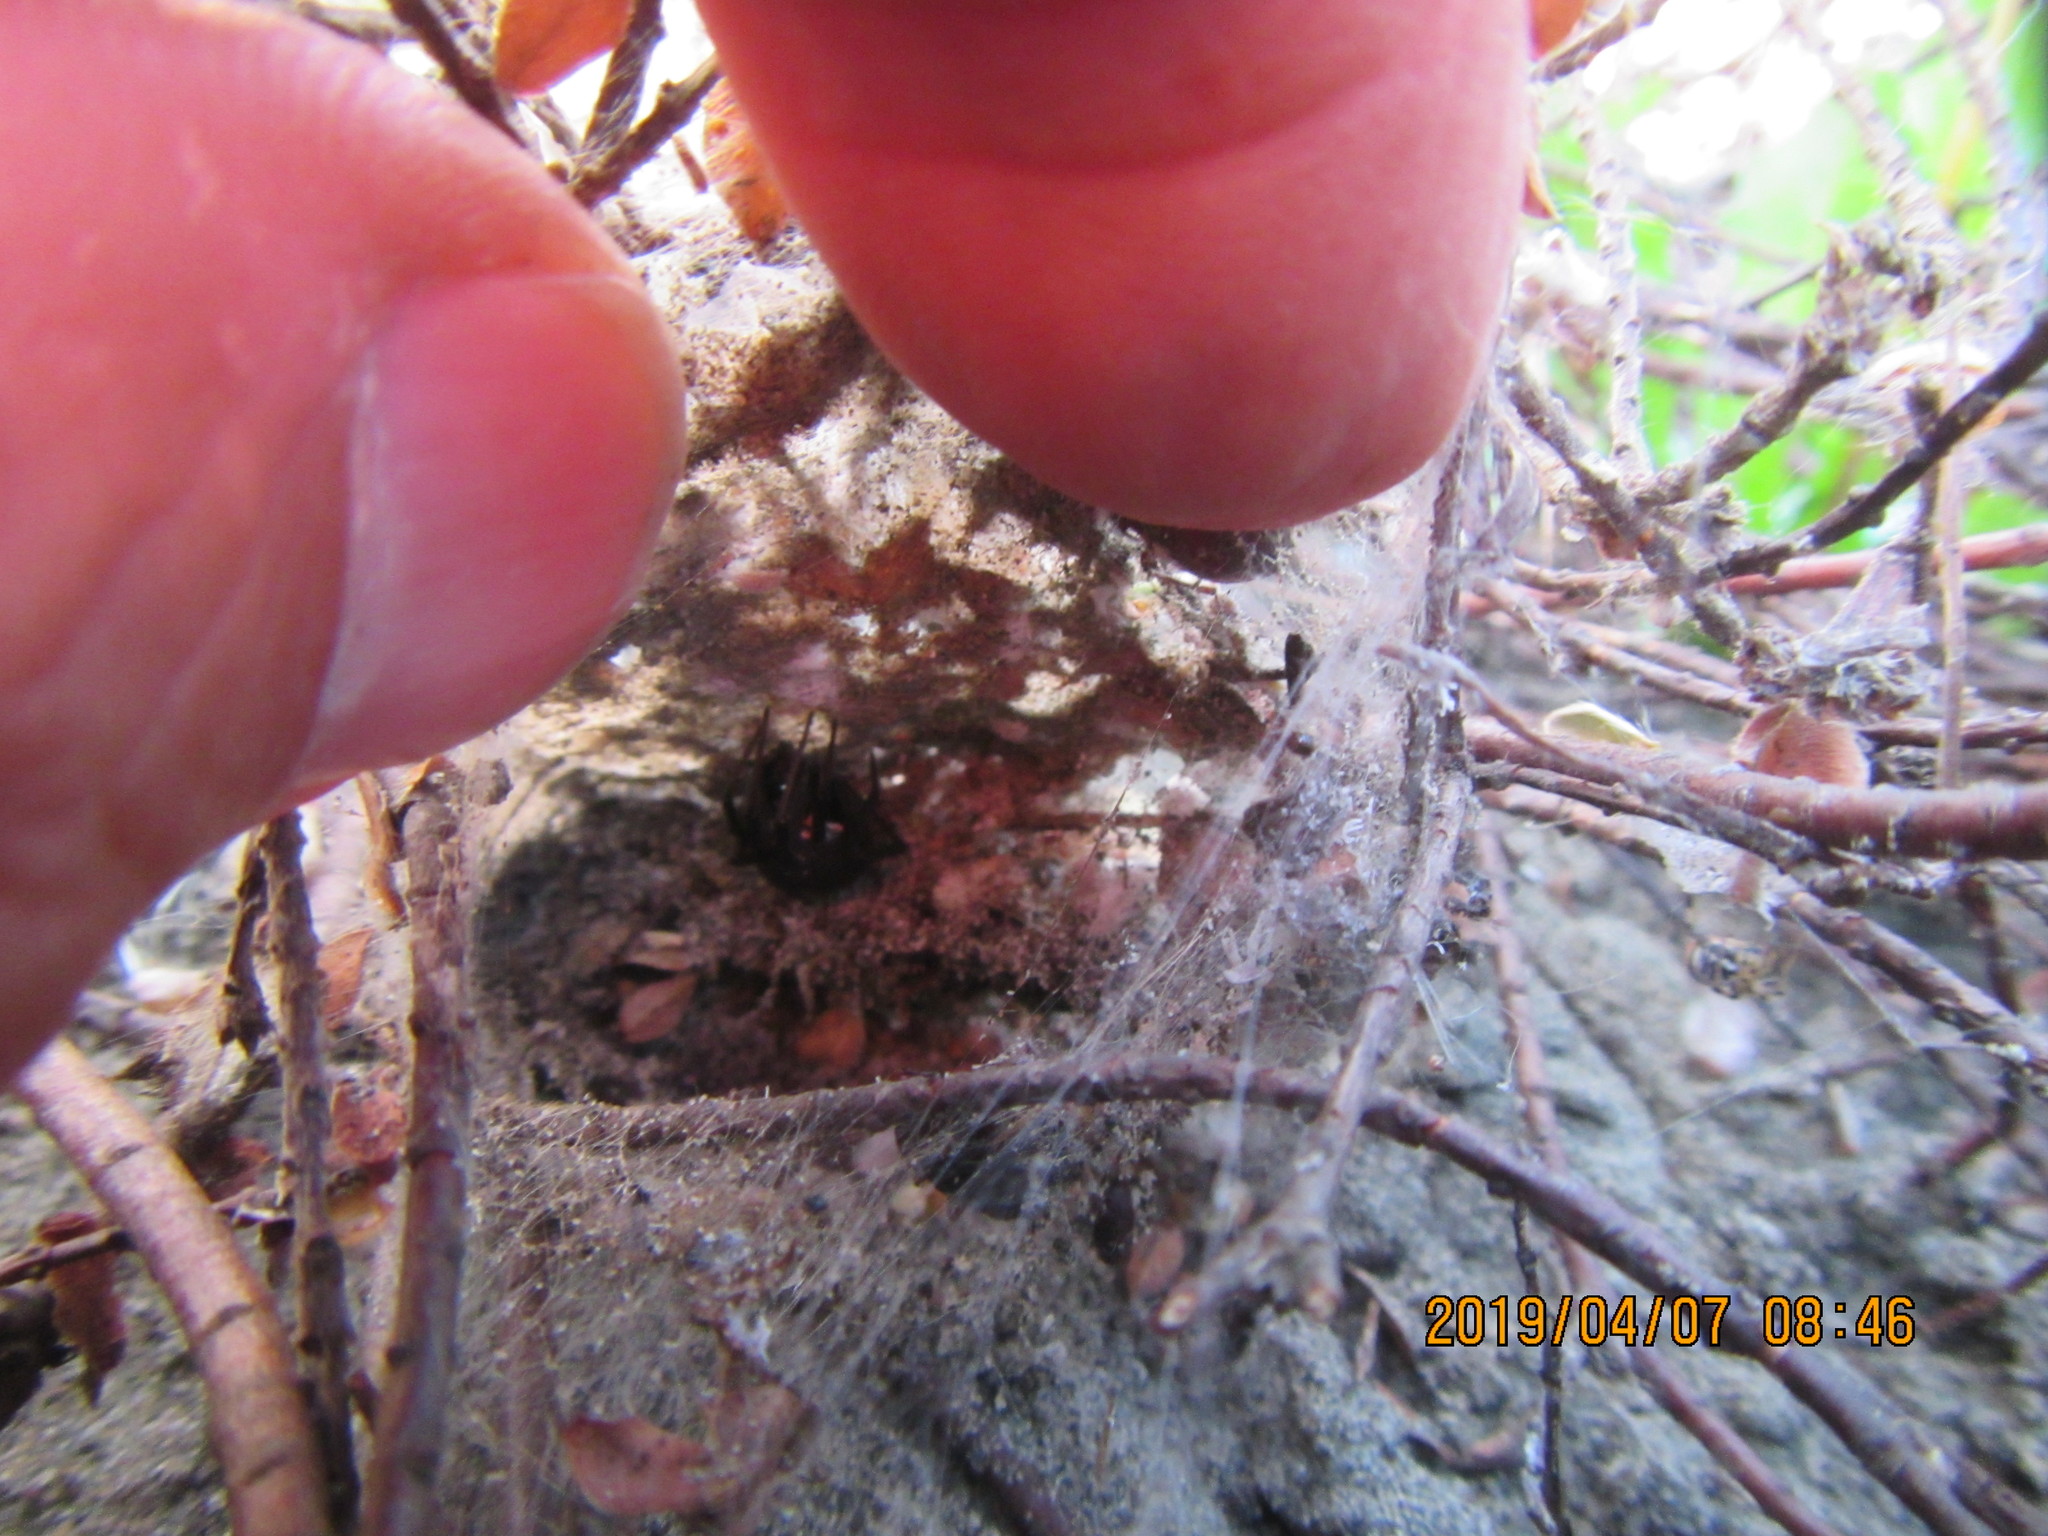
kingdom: Plantae
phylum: Tracheophyta
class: Magnoliopsida
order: Malvales
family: Thymelaeaceae
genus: Pimelea
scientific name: Pimelea villosa
